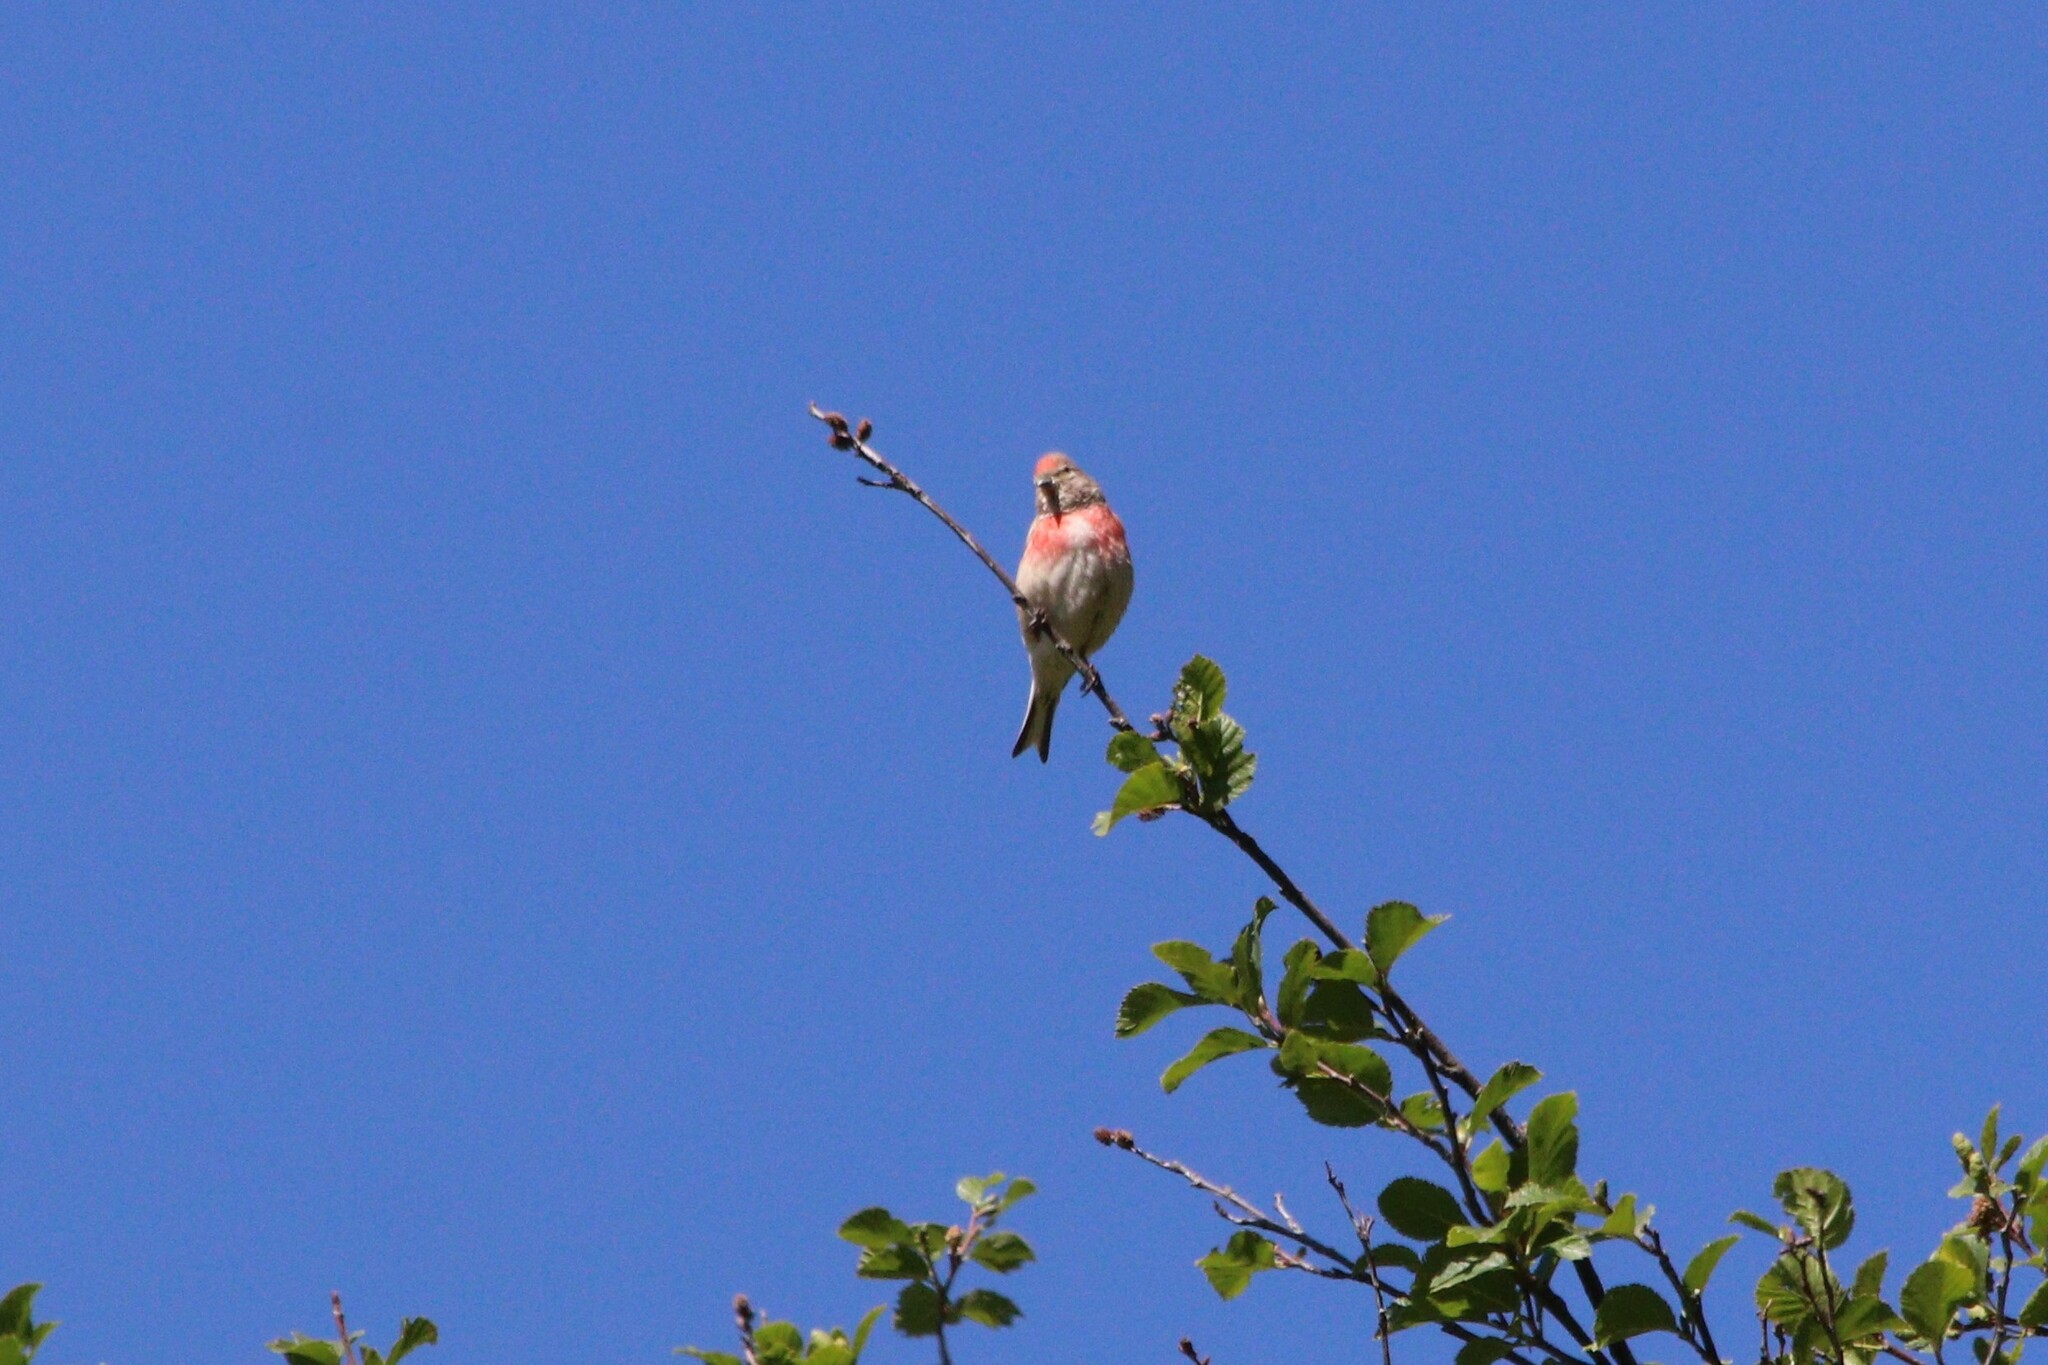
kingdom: Animalia
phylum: Chordata
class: Aves
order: Passeriformes
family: Fringillidae
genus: Linaria
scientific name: Linaria cannabina
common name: Common linnet
